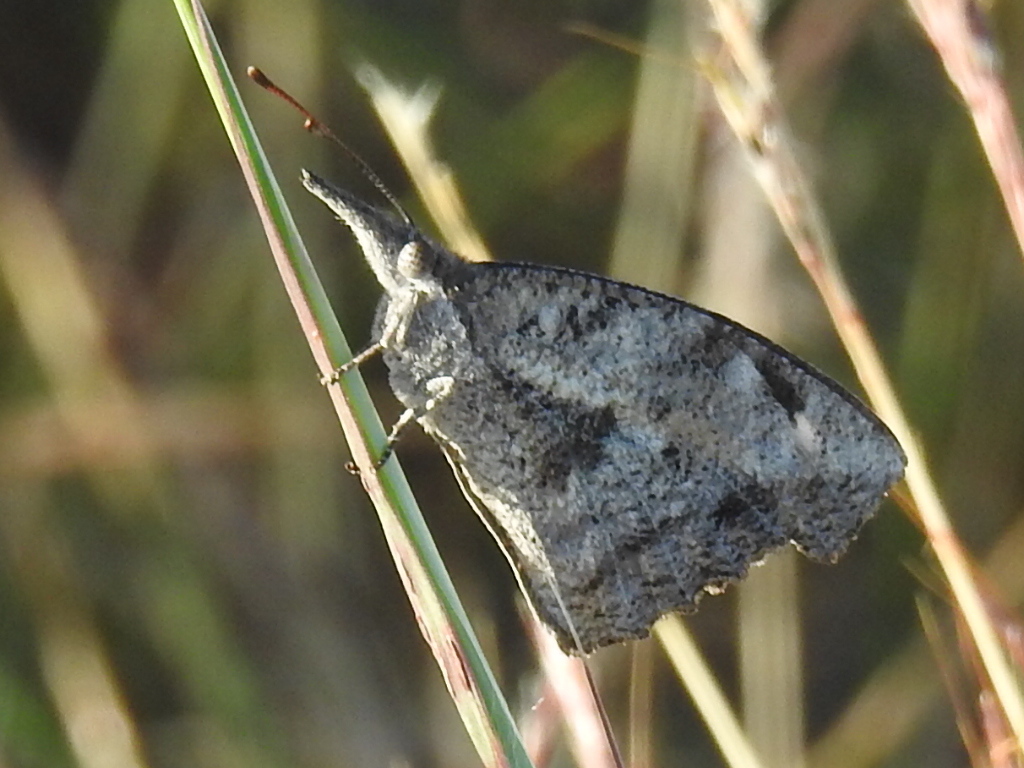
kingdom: Animalia
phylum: Arthropoda
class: Insecta
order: Lepidoptera
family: Nymphalidae
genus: Libytheana
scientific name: Libytheana carinenta
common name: American snout
